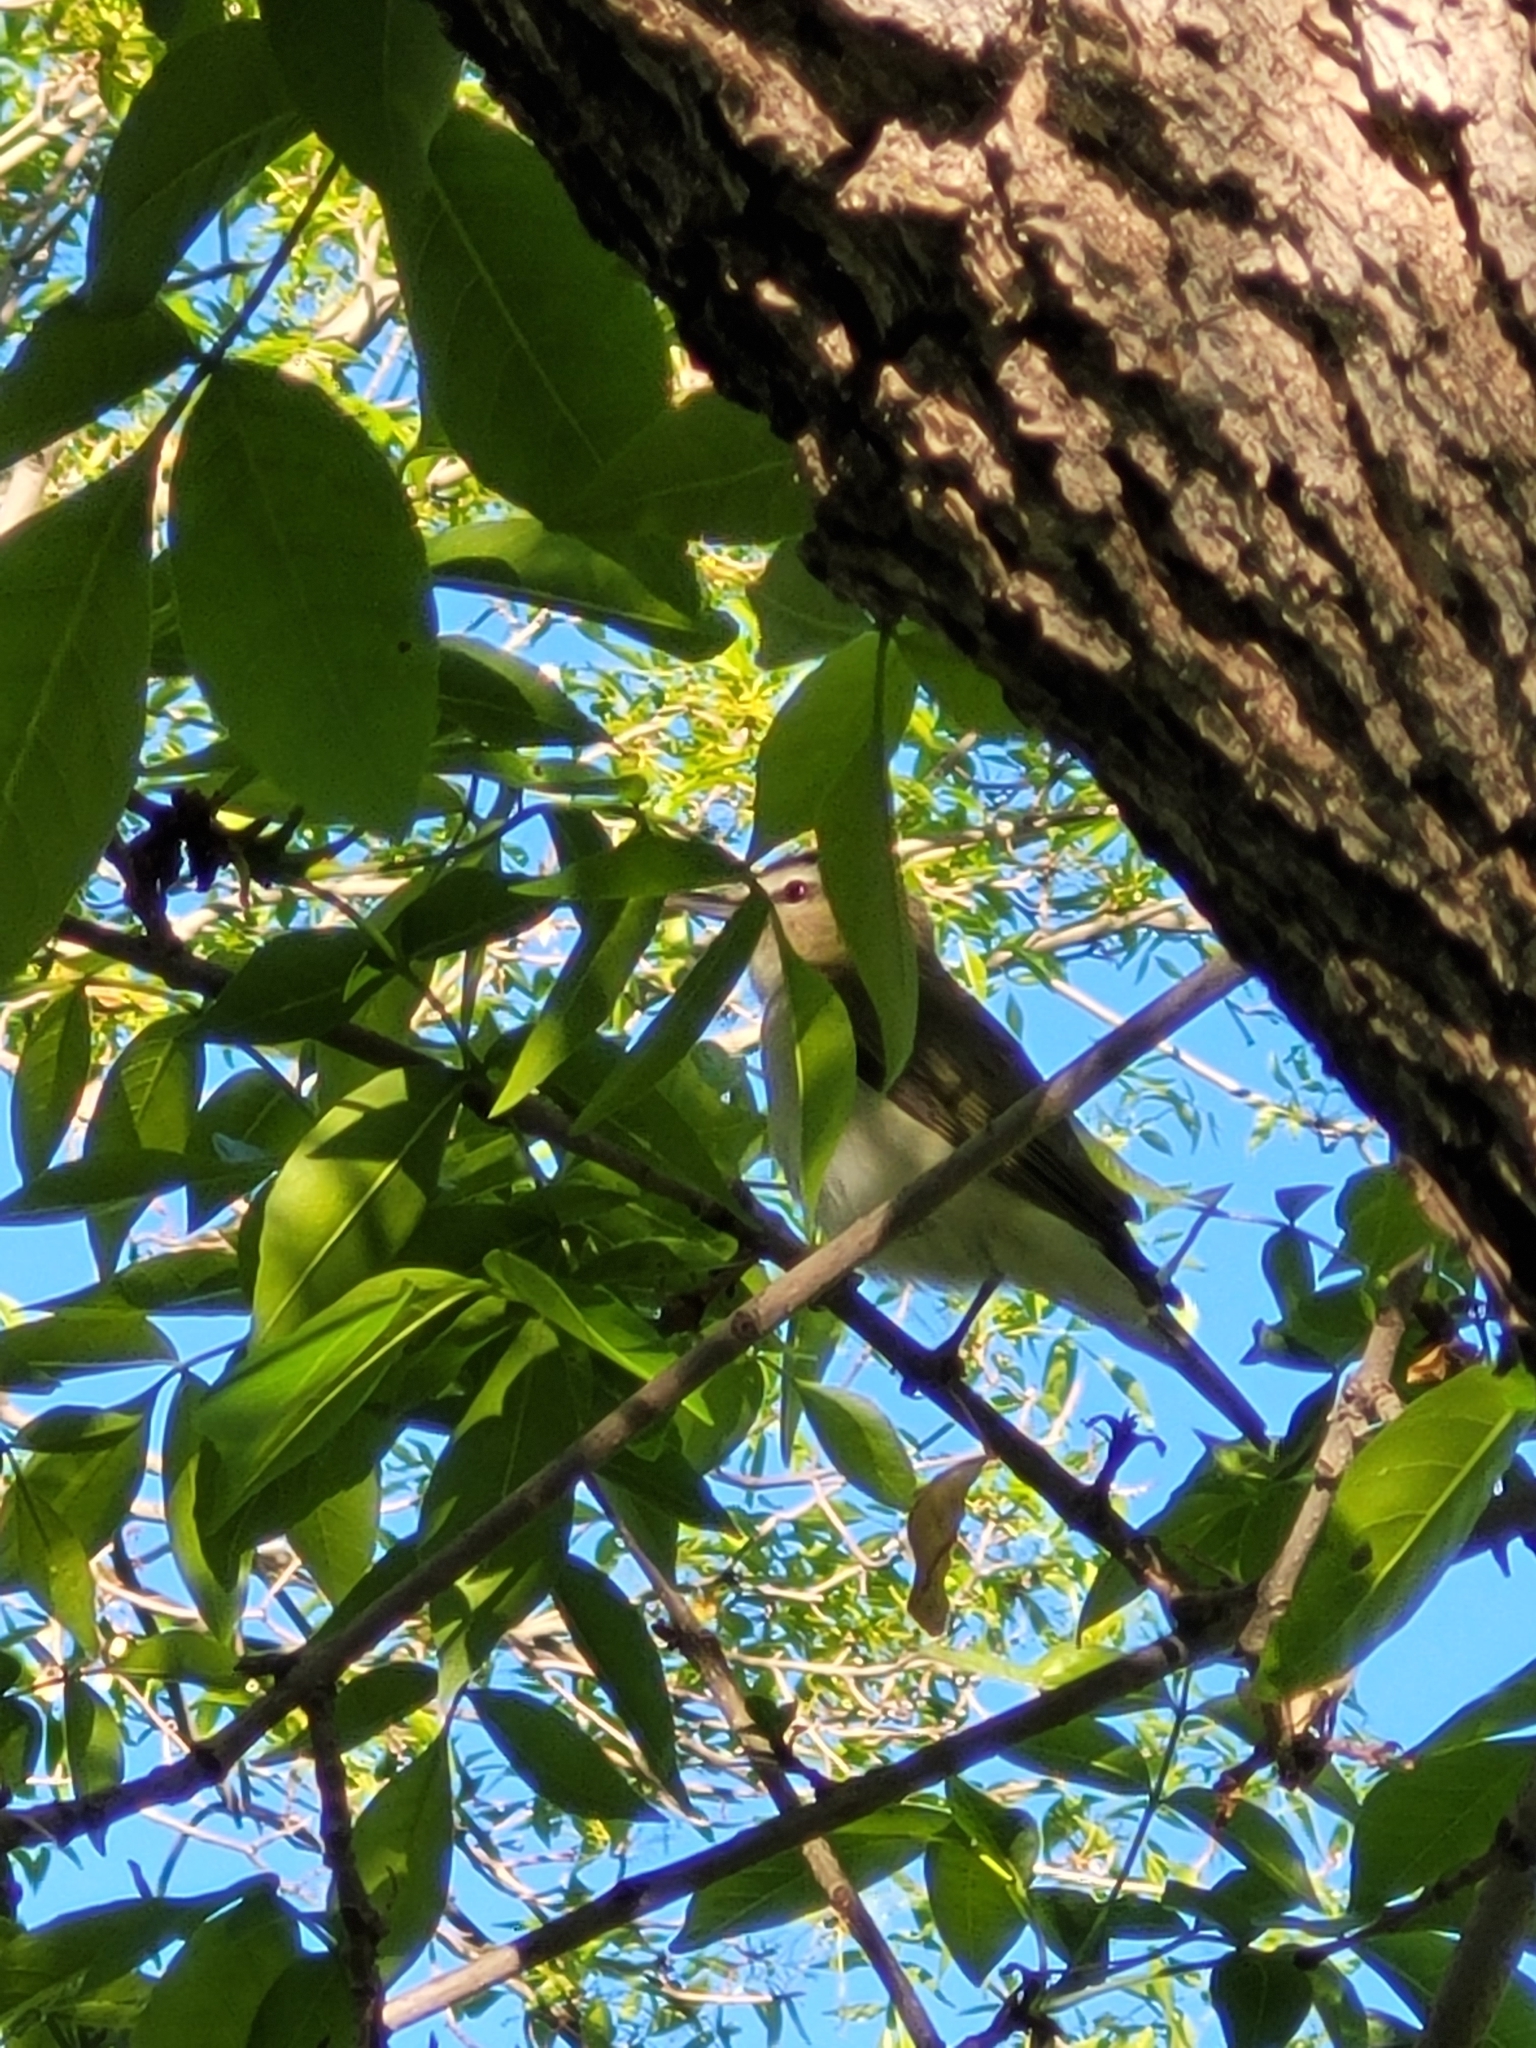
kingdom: Animalia
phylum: Chordata
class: Aves
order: Passeriformes
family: Vireonidae
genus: Vireo
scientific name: Vireo olivaceus
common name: Red-eyed vireo
